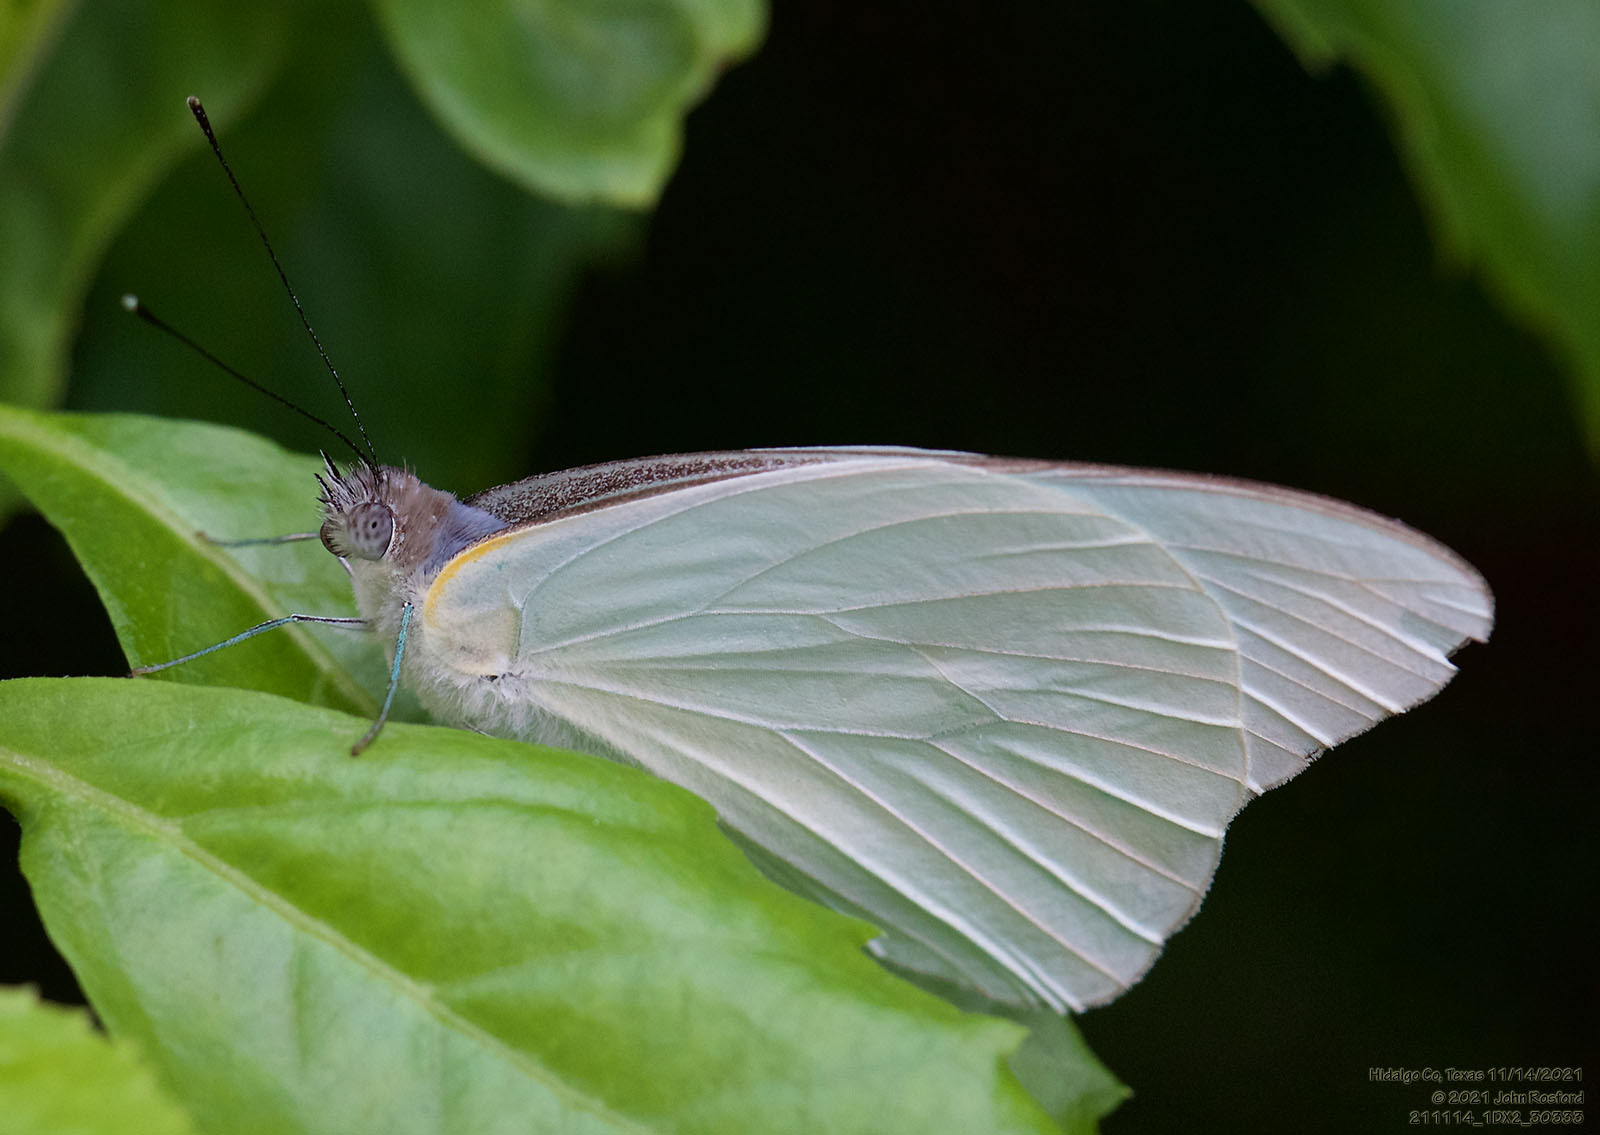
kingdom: Animalia
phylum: Arthropoda
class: Insecta
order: Lepidoptera
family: Pieridae
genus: Glutophrissa
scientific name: Glutophrissa drusilla
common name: Florida white
